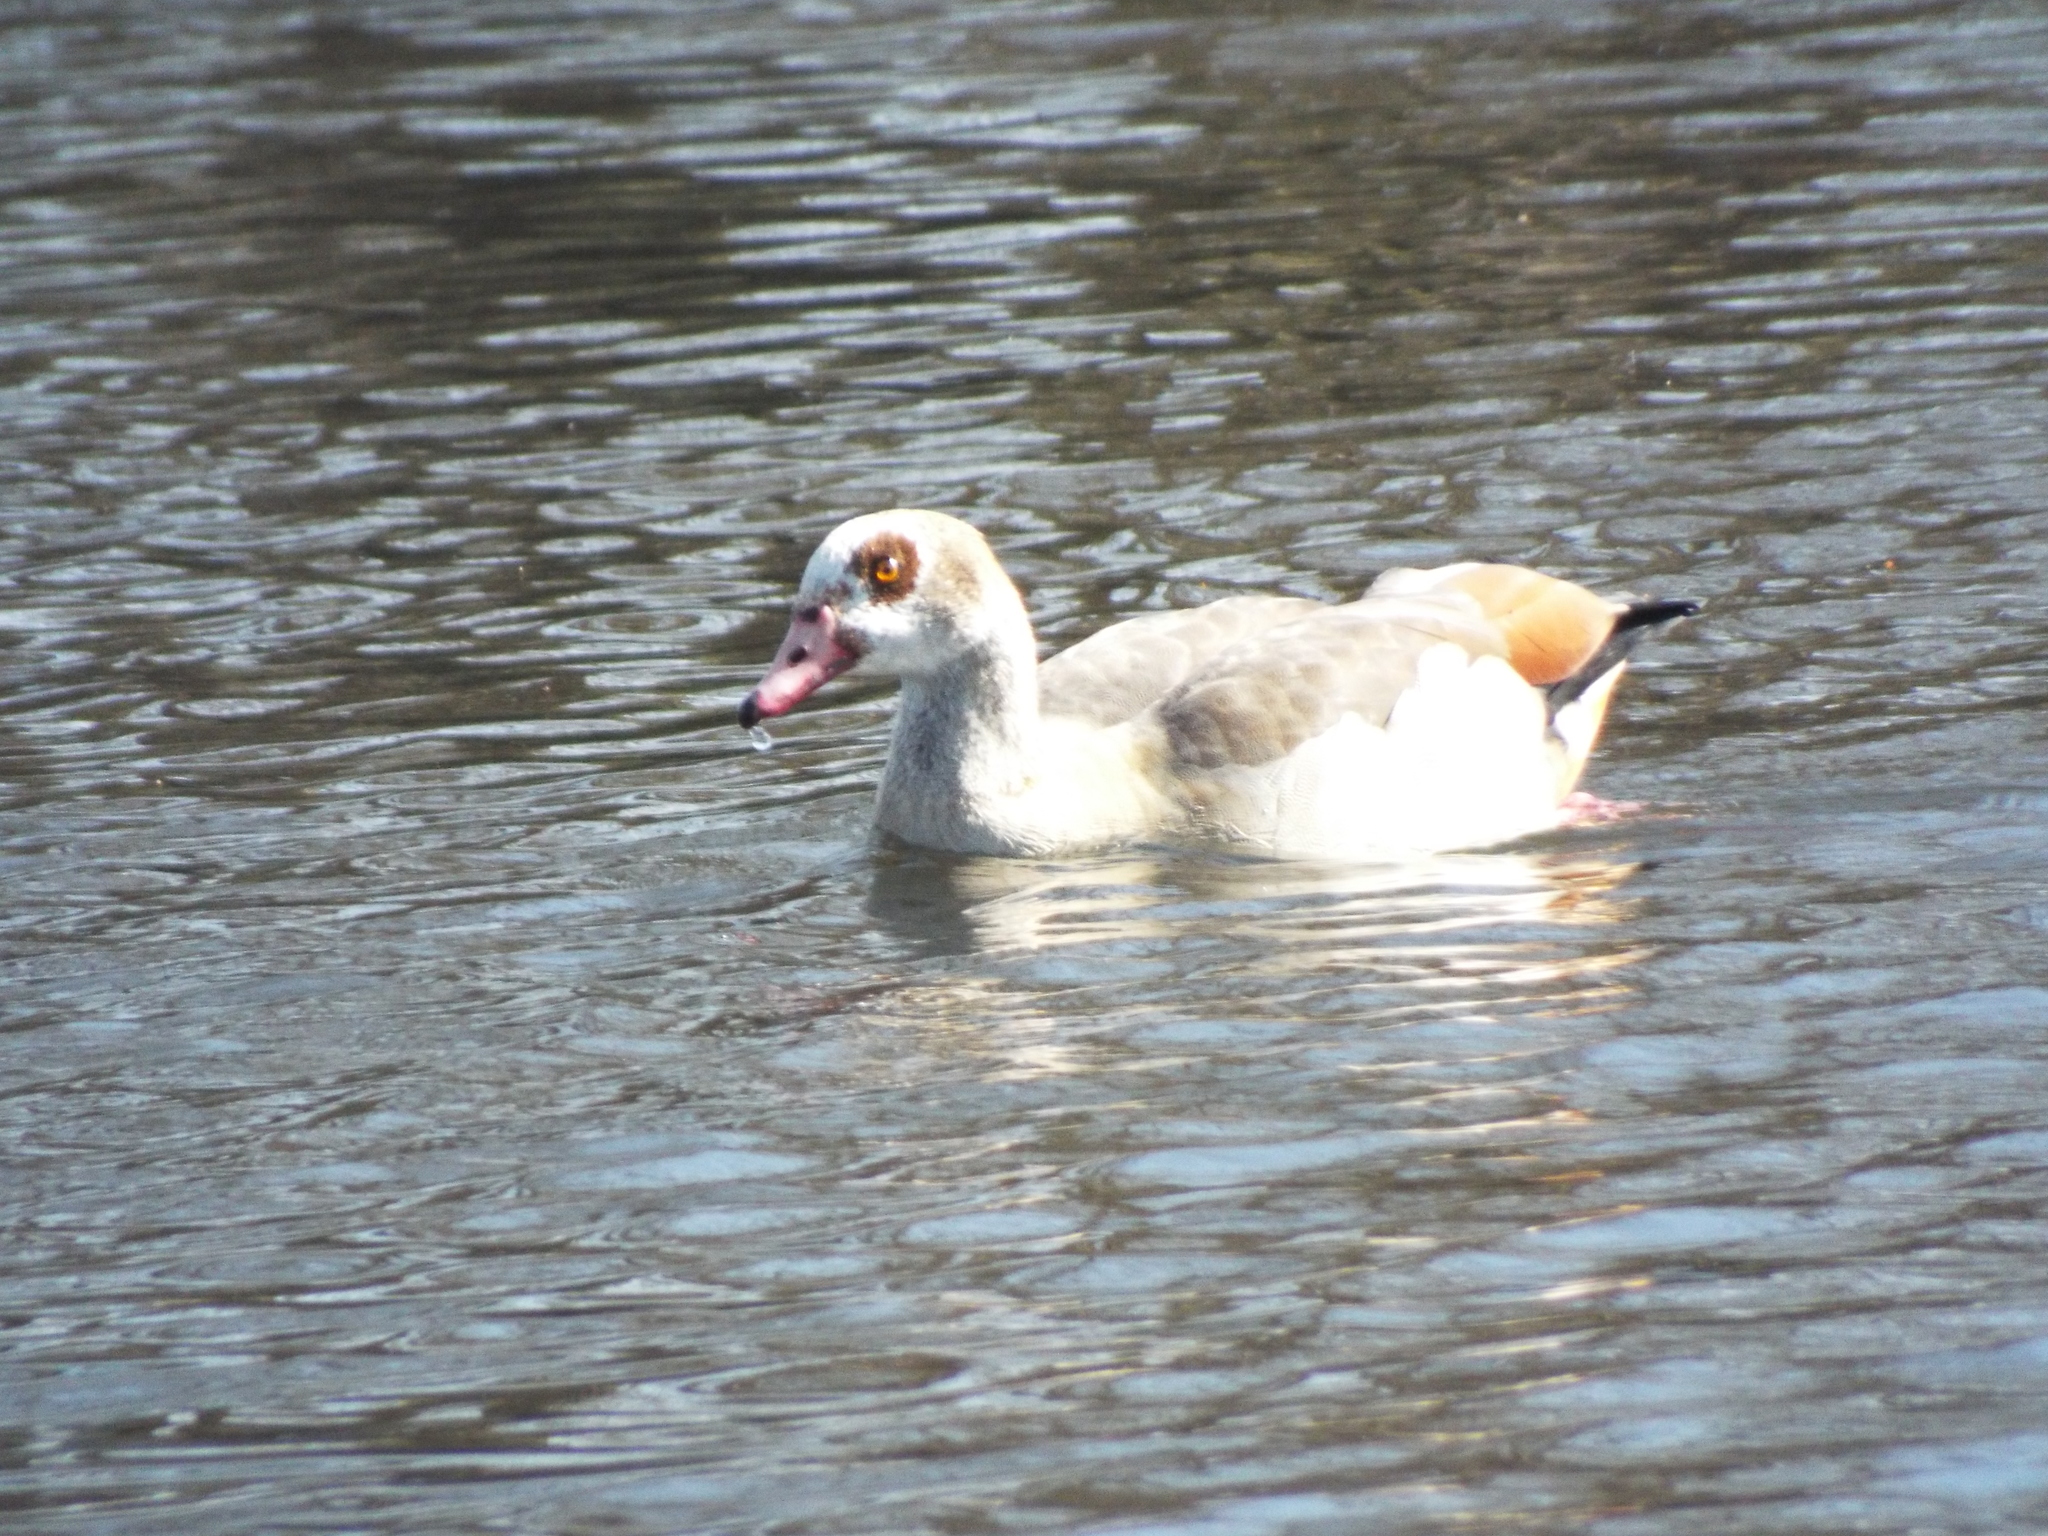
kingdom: Animalia
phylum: Chordata
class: Aves
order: Anseriformes
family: Anatidae
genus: Alopochen
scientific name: Alopochen aegyptiaca
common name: Egyptian goose
